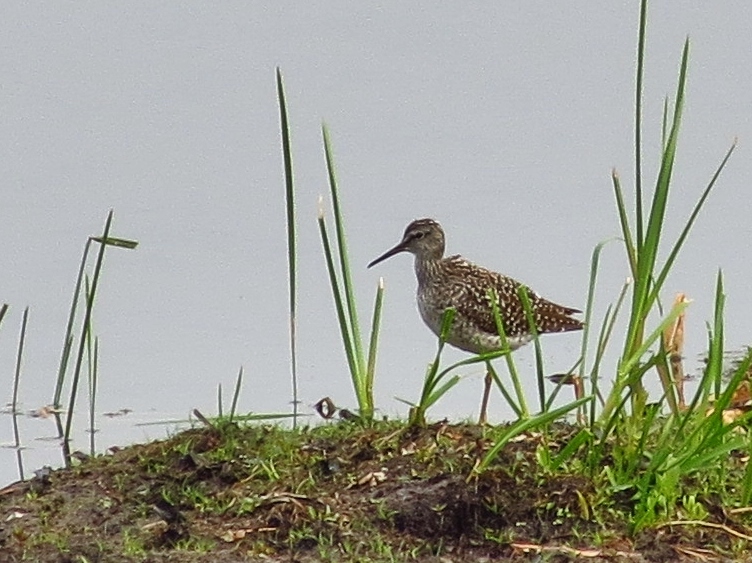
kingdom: Animalia
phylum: Chordata
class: Aves
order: Charadriiformes
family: Scolopacidae
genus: Tringa
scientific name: Tringa glareola
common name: Wood sandpiper
